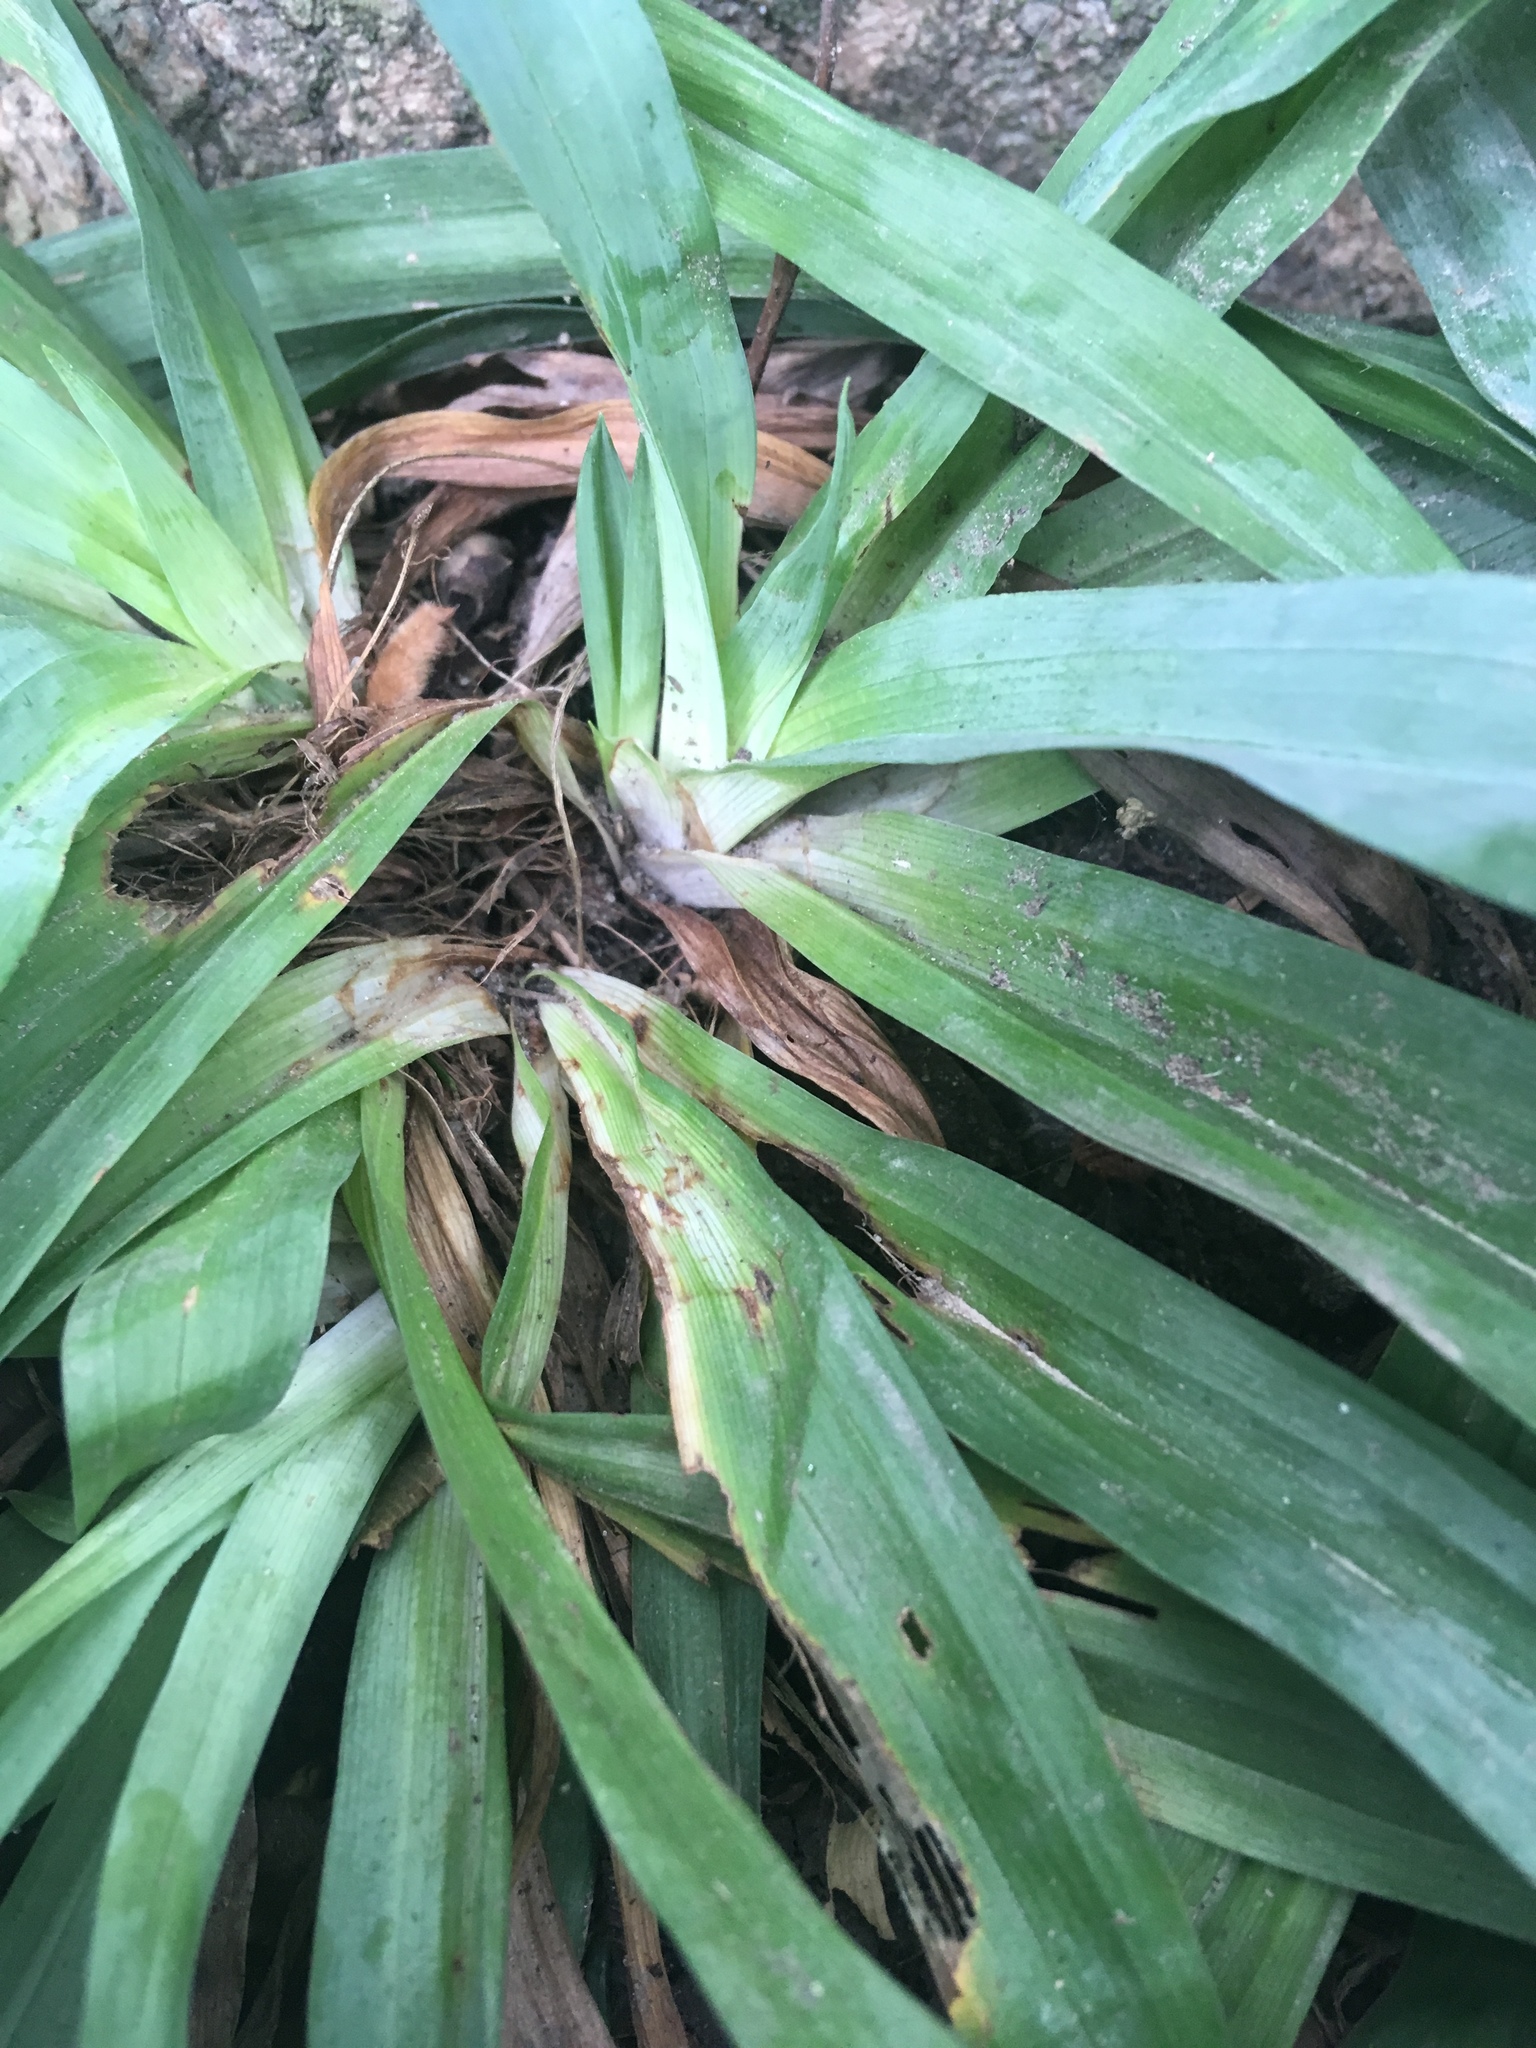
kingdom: Plantae
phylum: Tracheophyta
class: Liliopsida
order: Poales
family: Cyperaceae
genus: Carex
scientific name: Carex platyphylla
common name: Broad-leaved sedge
